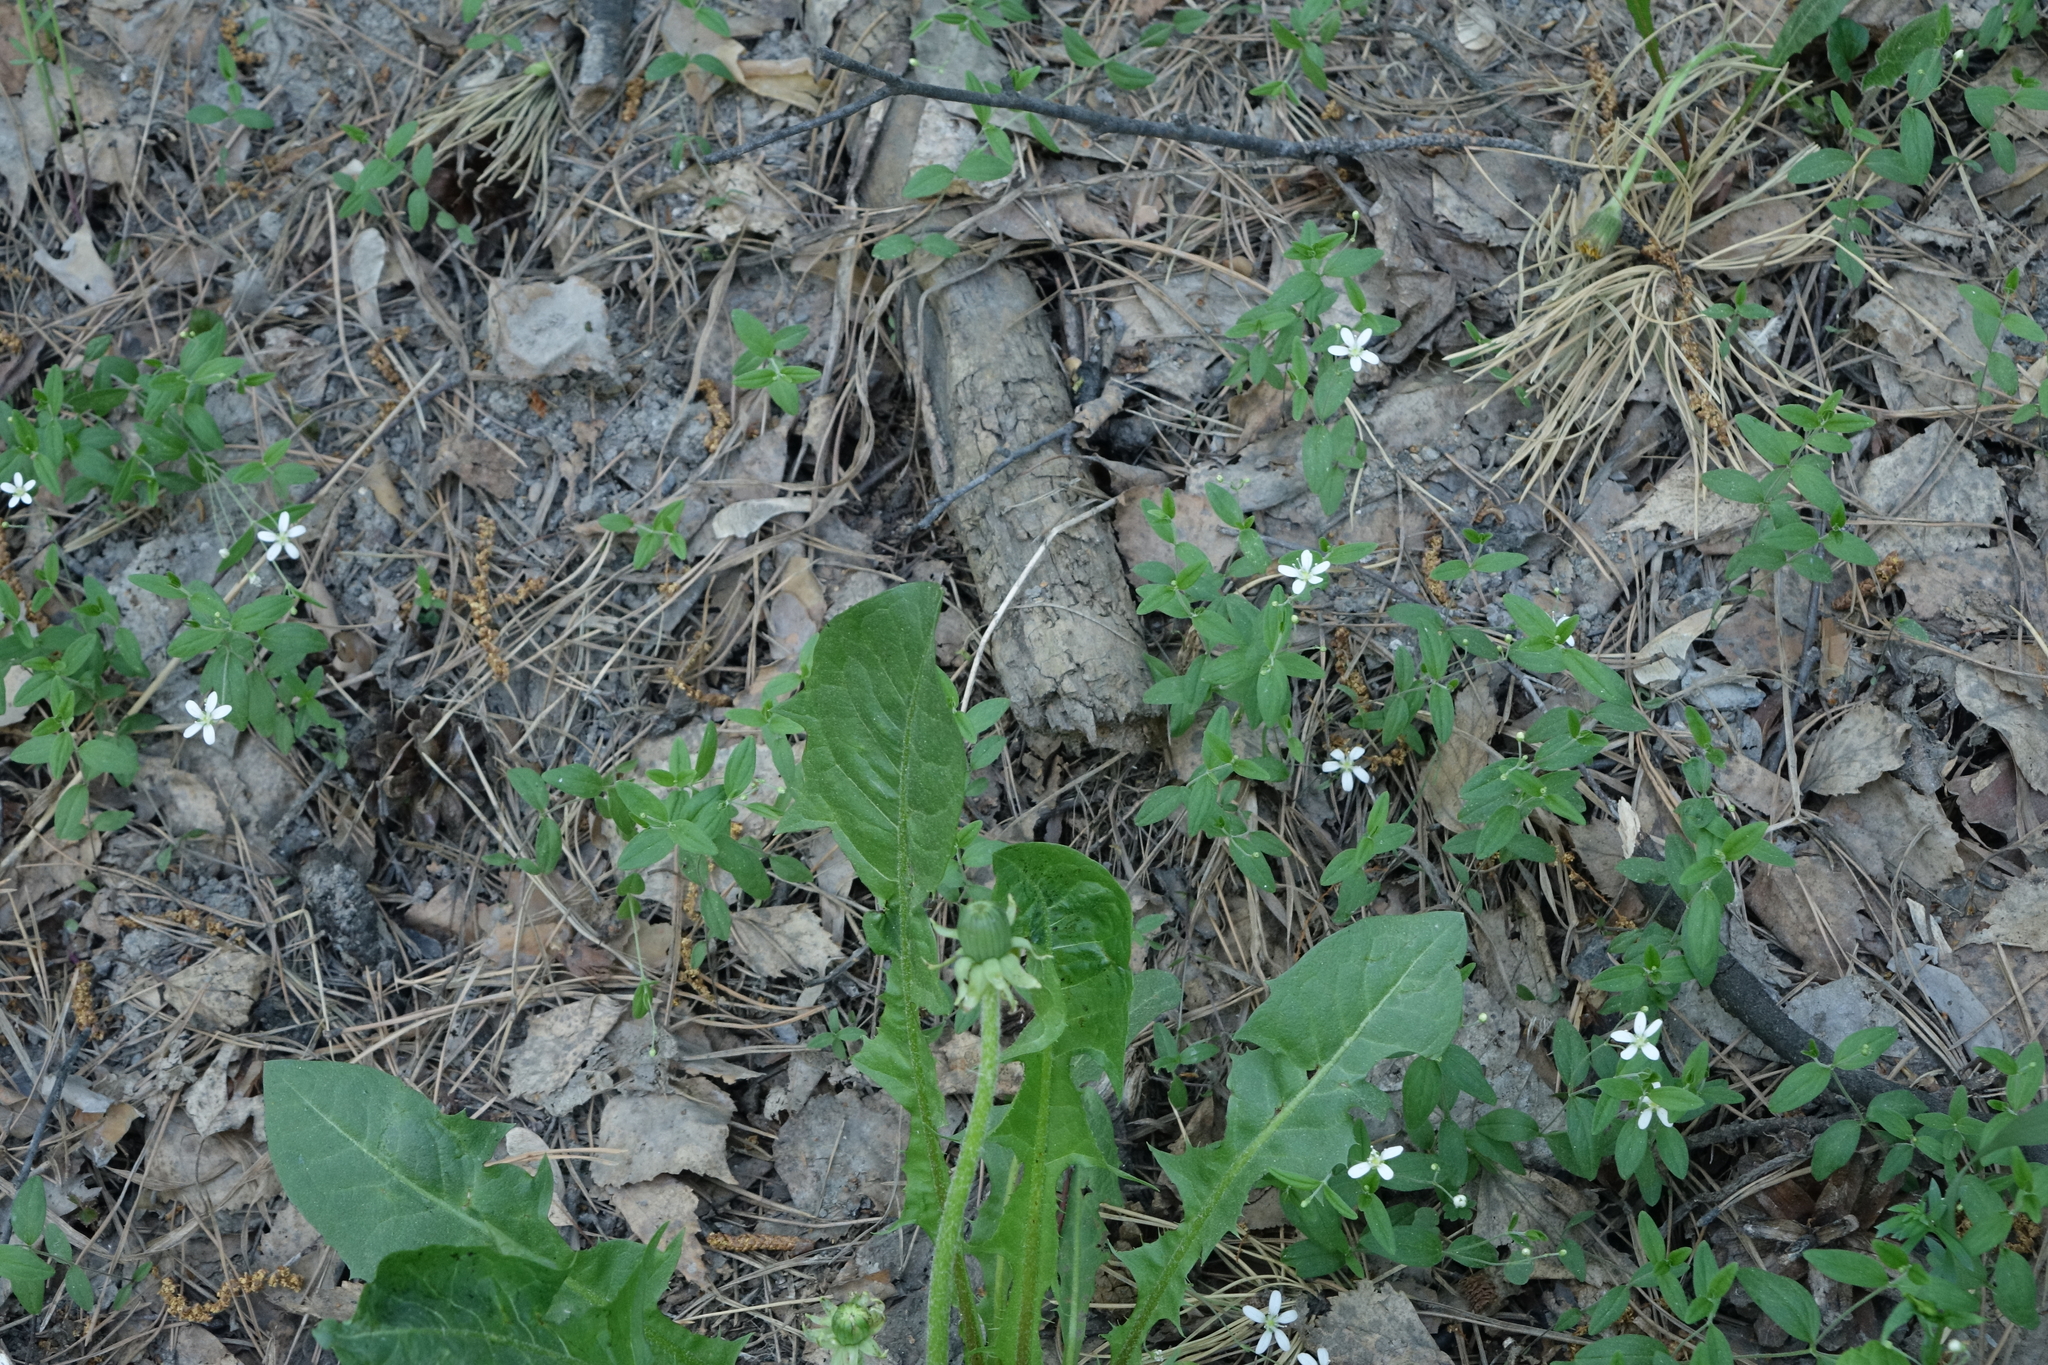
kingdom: Plantae
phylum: Tracheophyta
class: Magnoliopsida
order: Caryophyllales
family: Caryophyllaceae
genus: Moehringia
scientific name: Moehringia lateriflora
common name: Blunt-leaved sandwort
